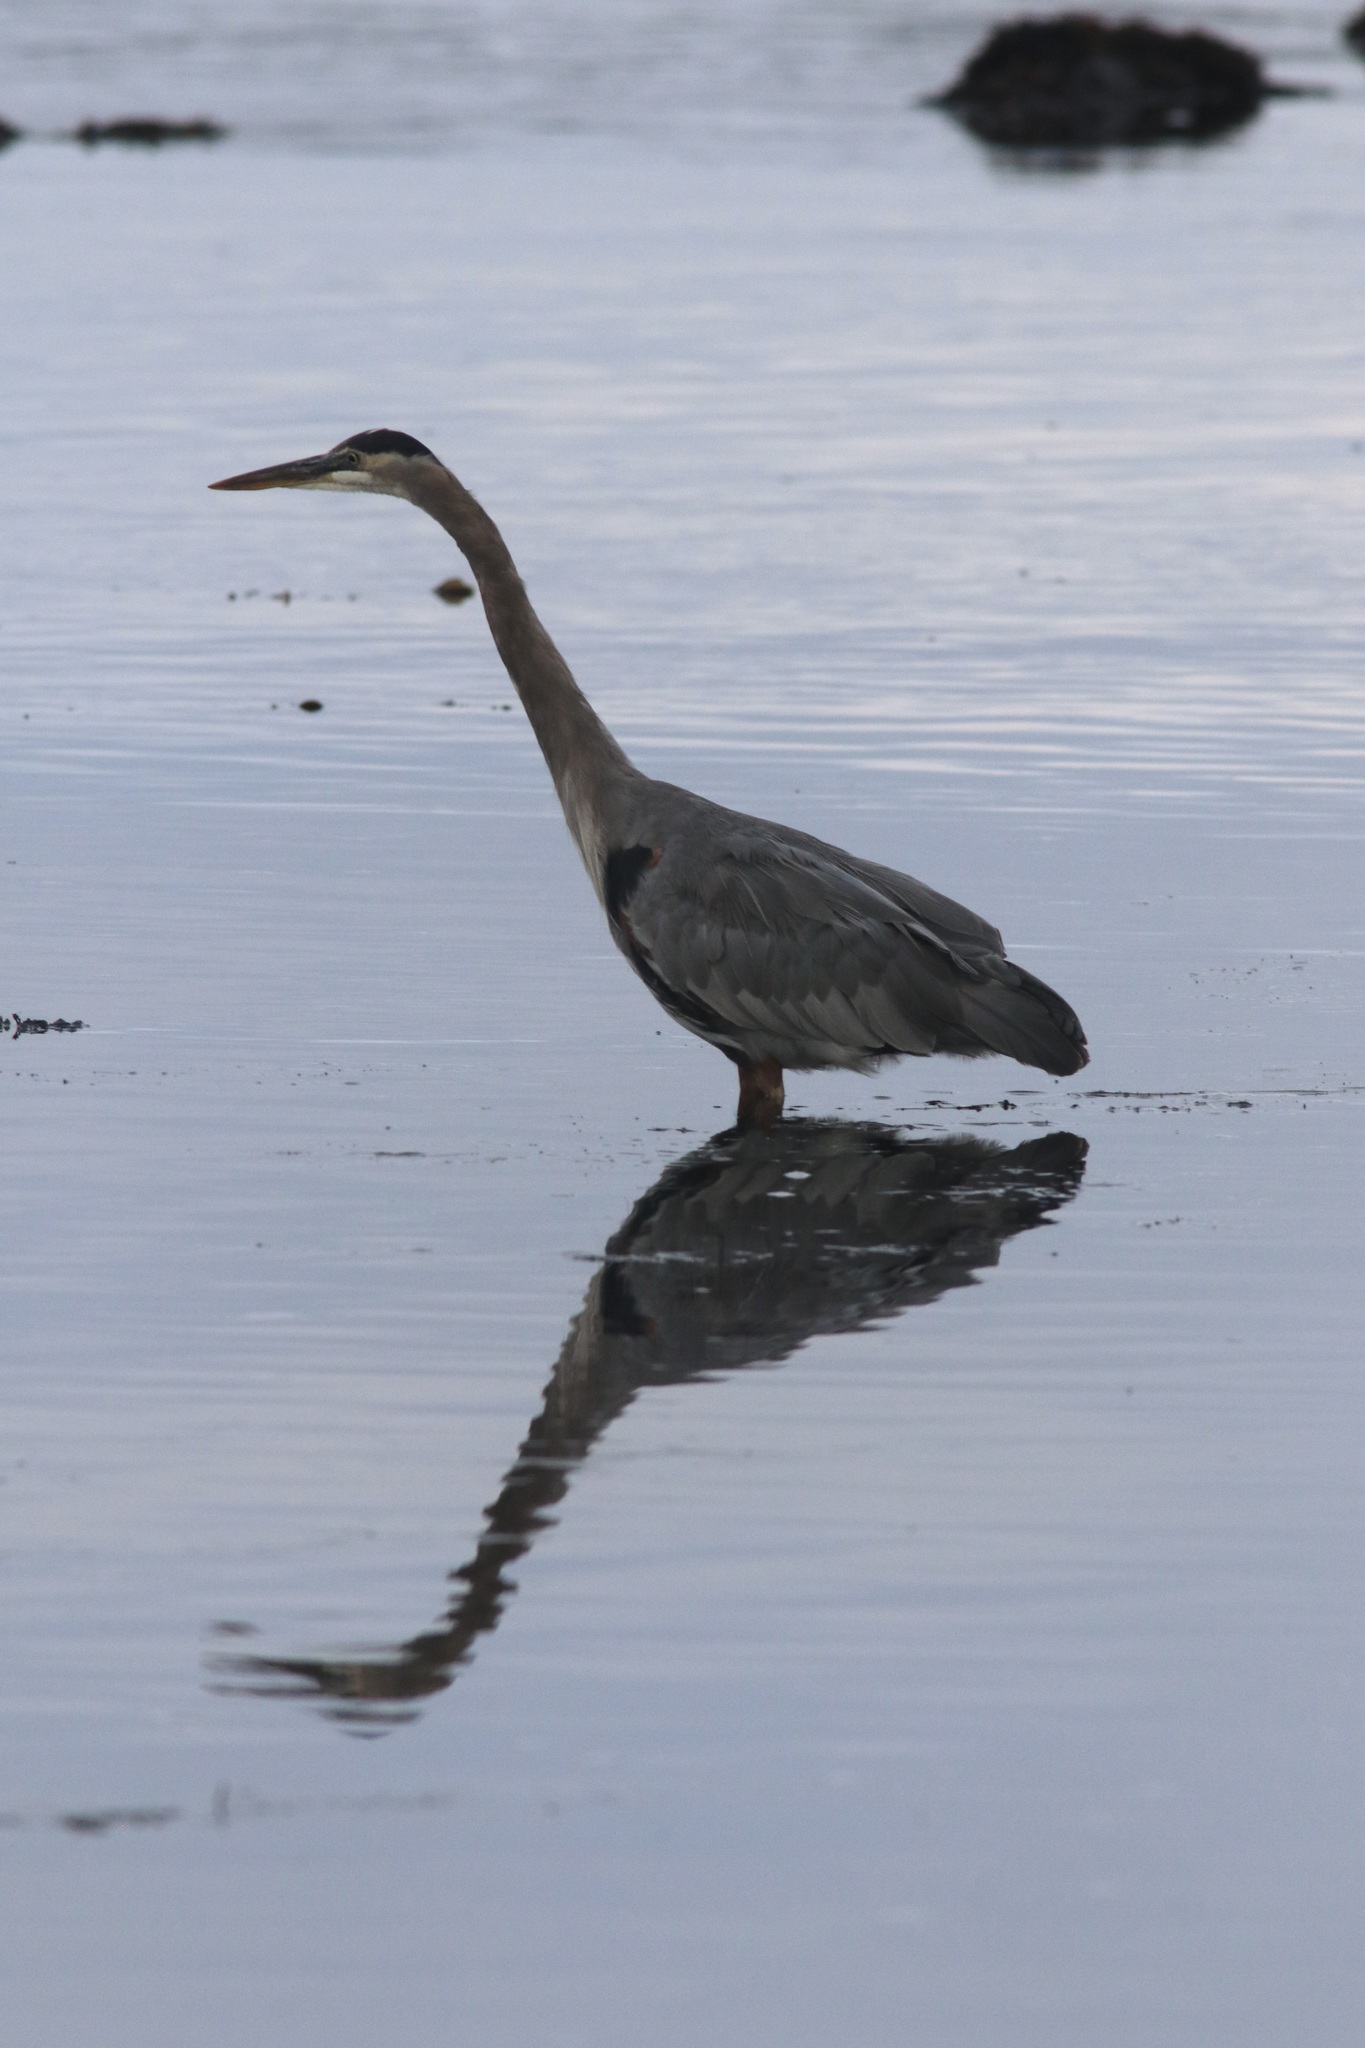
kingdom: Animalia
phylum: Chordata
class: Aves
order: Pelecaniformes
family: Ardeidae
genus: Ardea
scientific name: Ardea herodias
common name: Great blue heron
